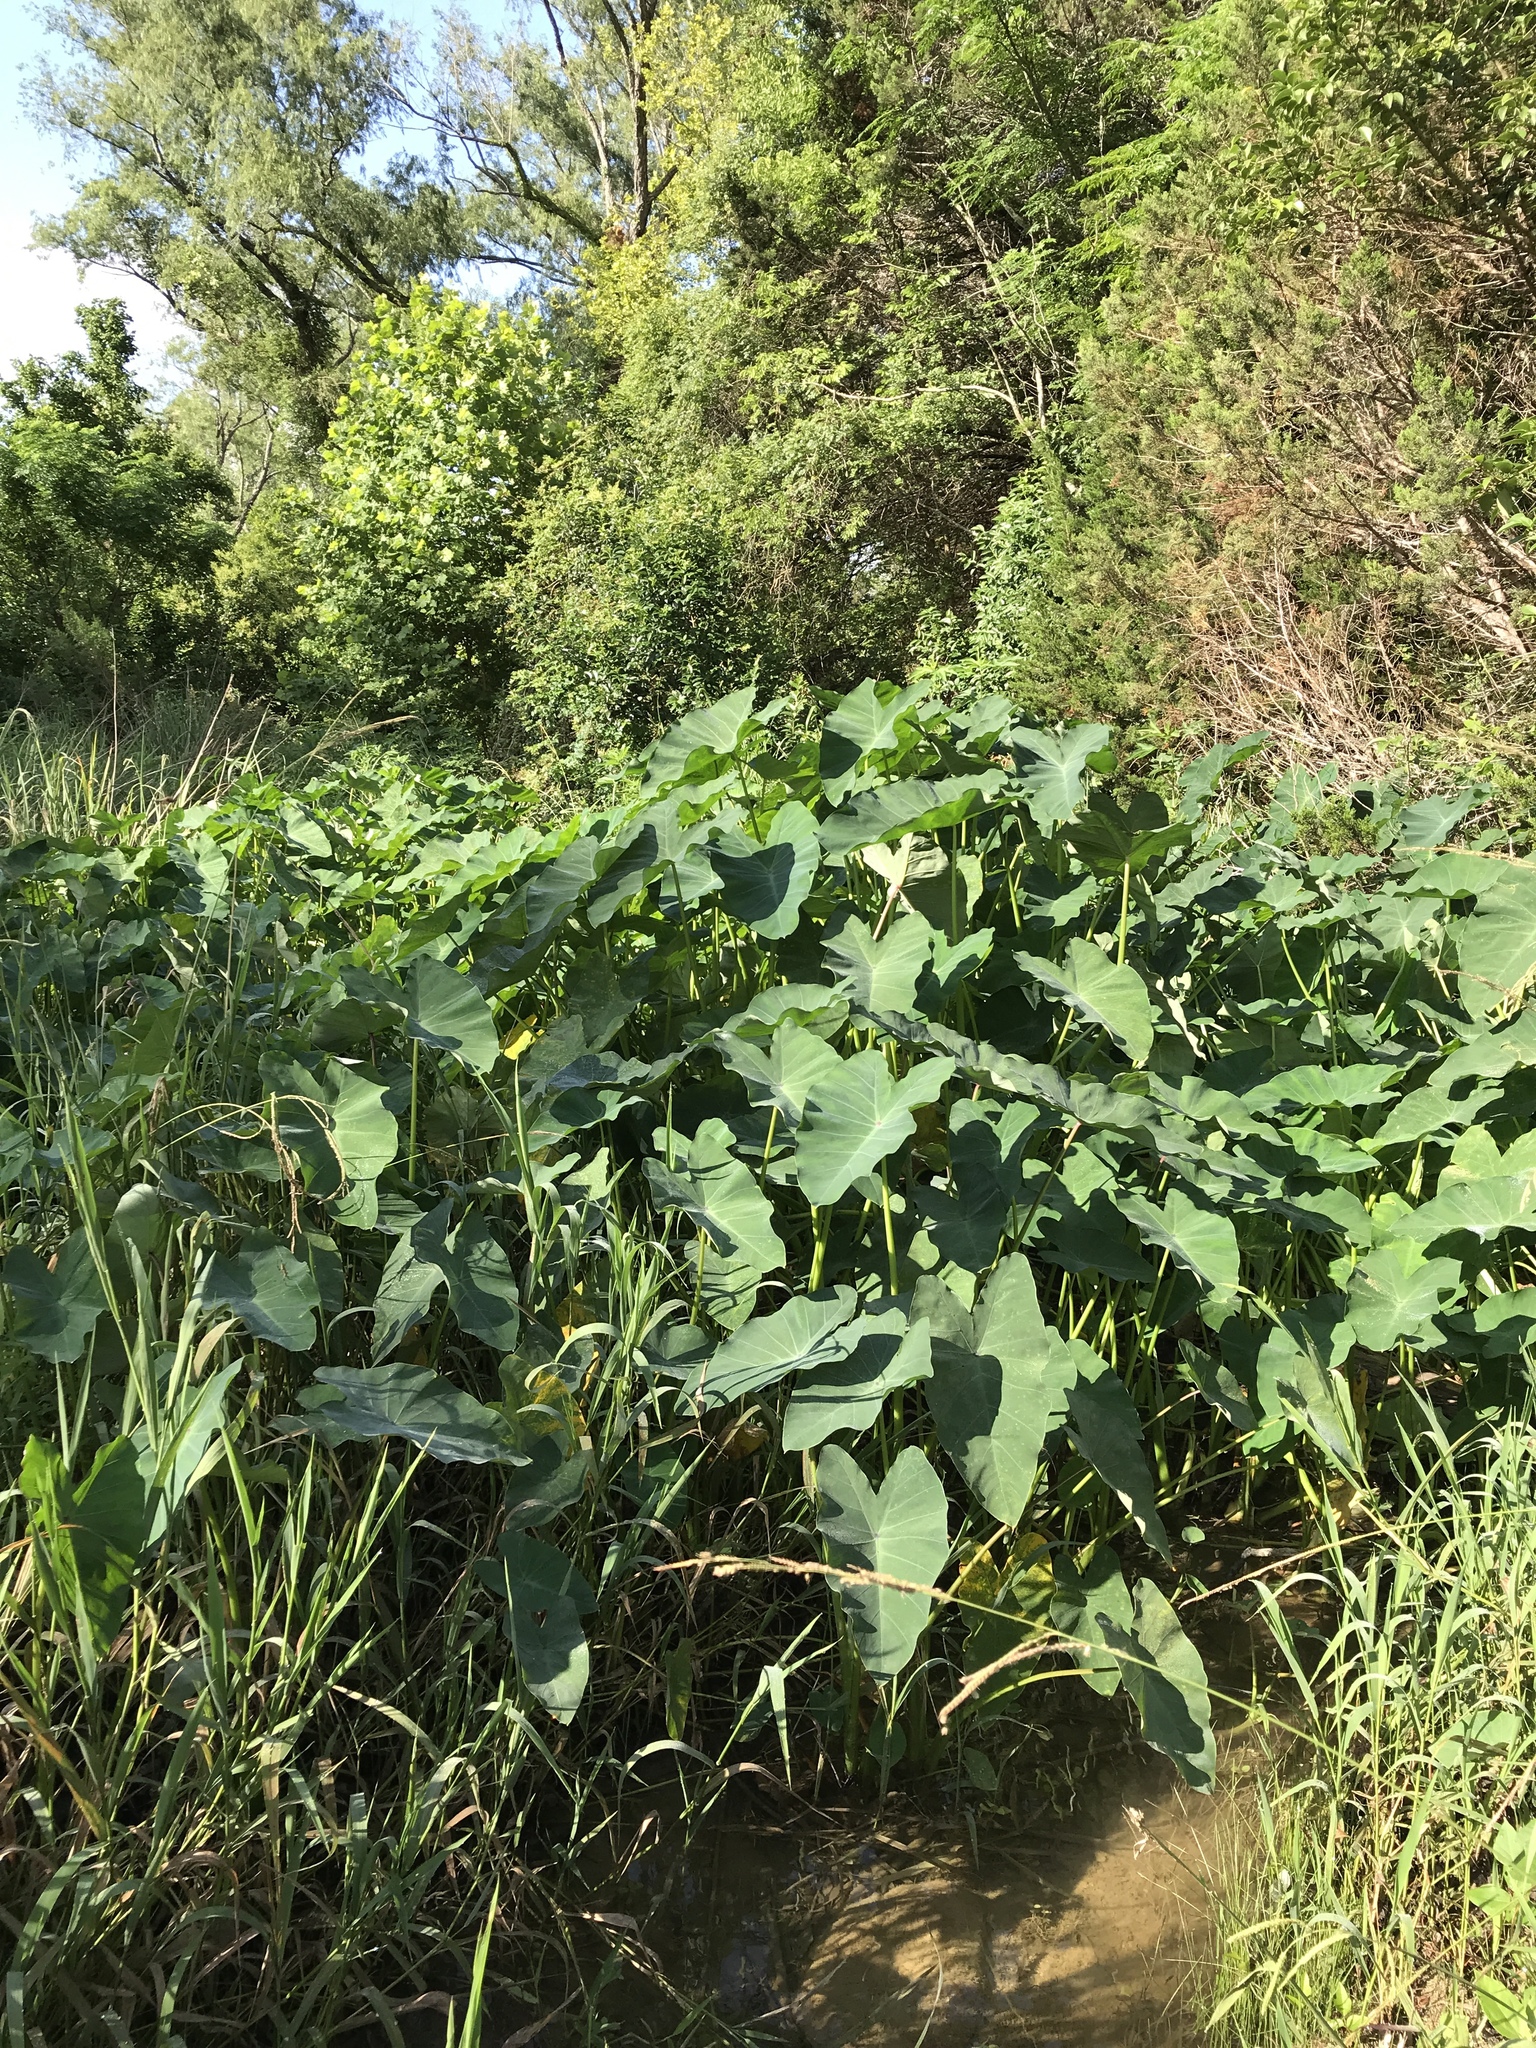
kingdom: Plantae
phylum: Tracheophyta
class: Liliopsida
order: Alismatales
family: Araceae
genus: Colocasia
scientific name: Colocasia esculenta
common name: Taro
